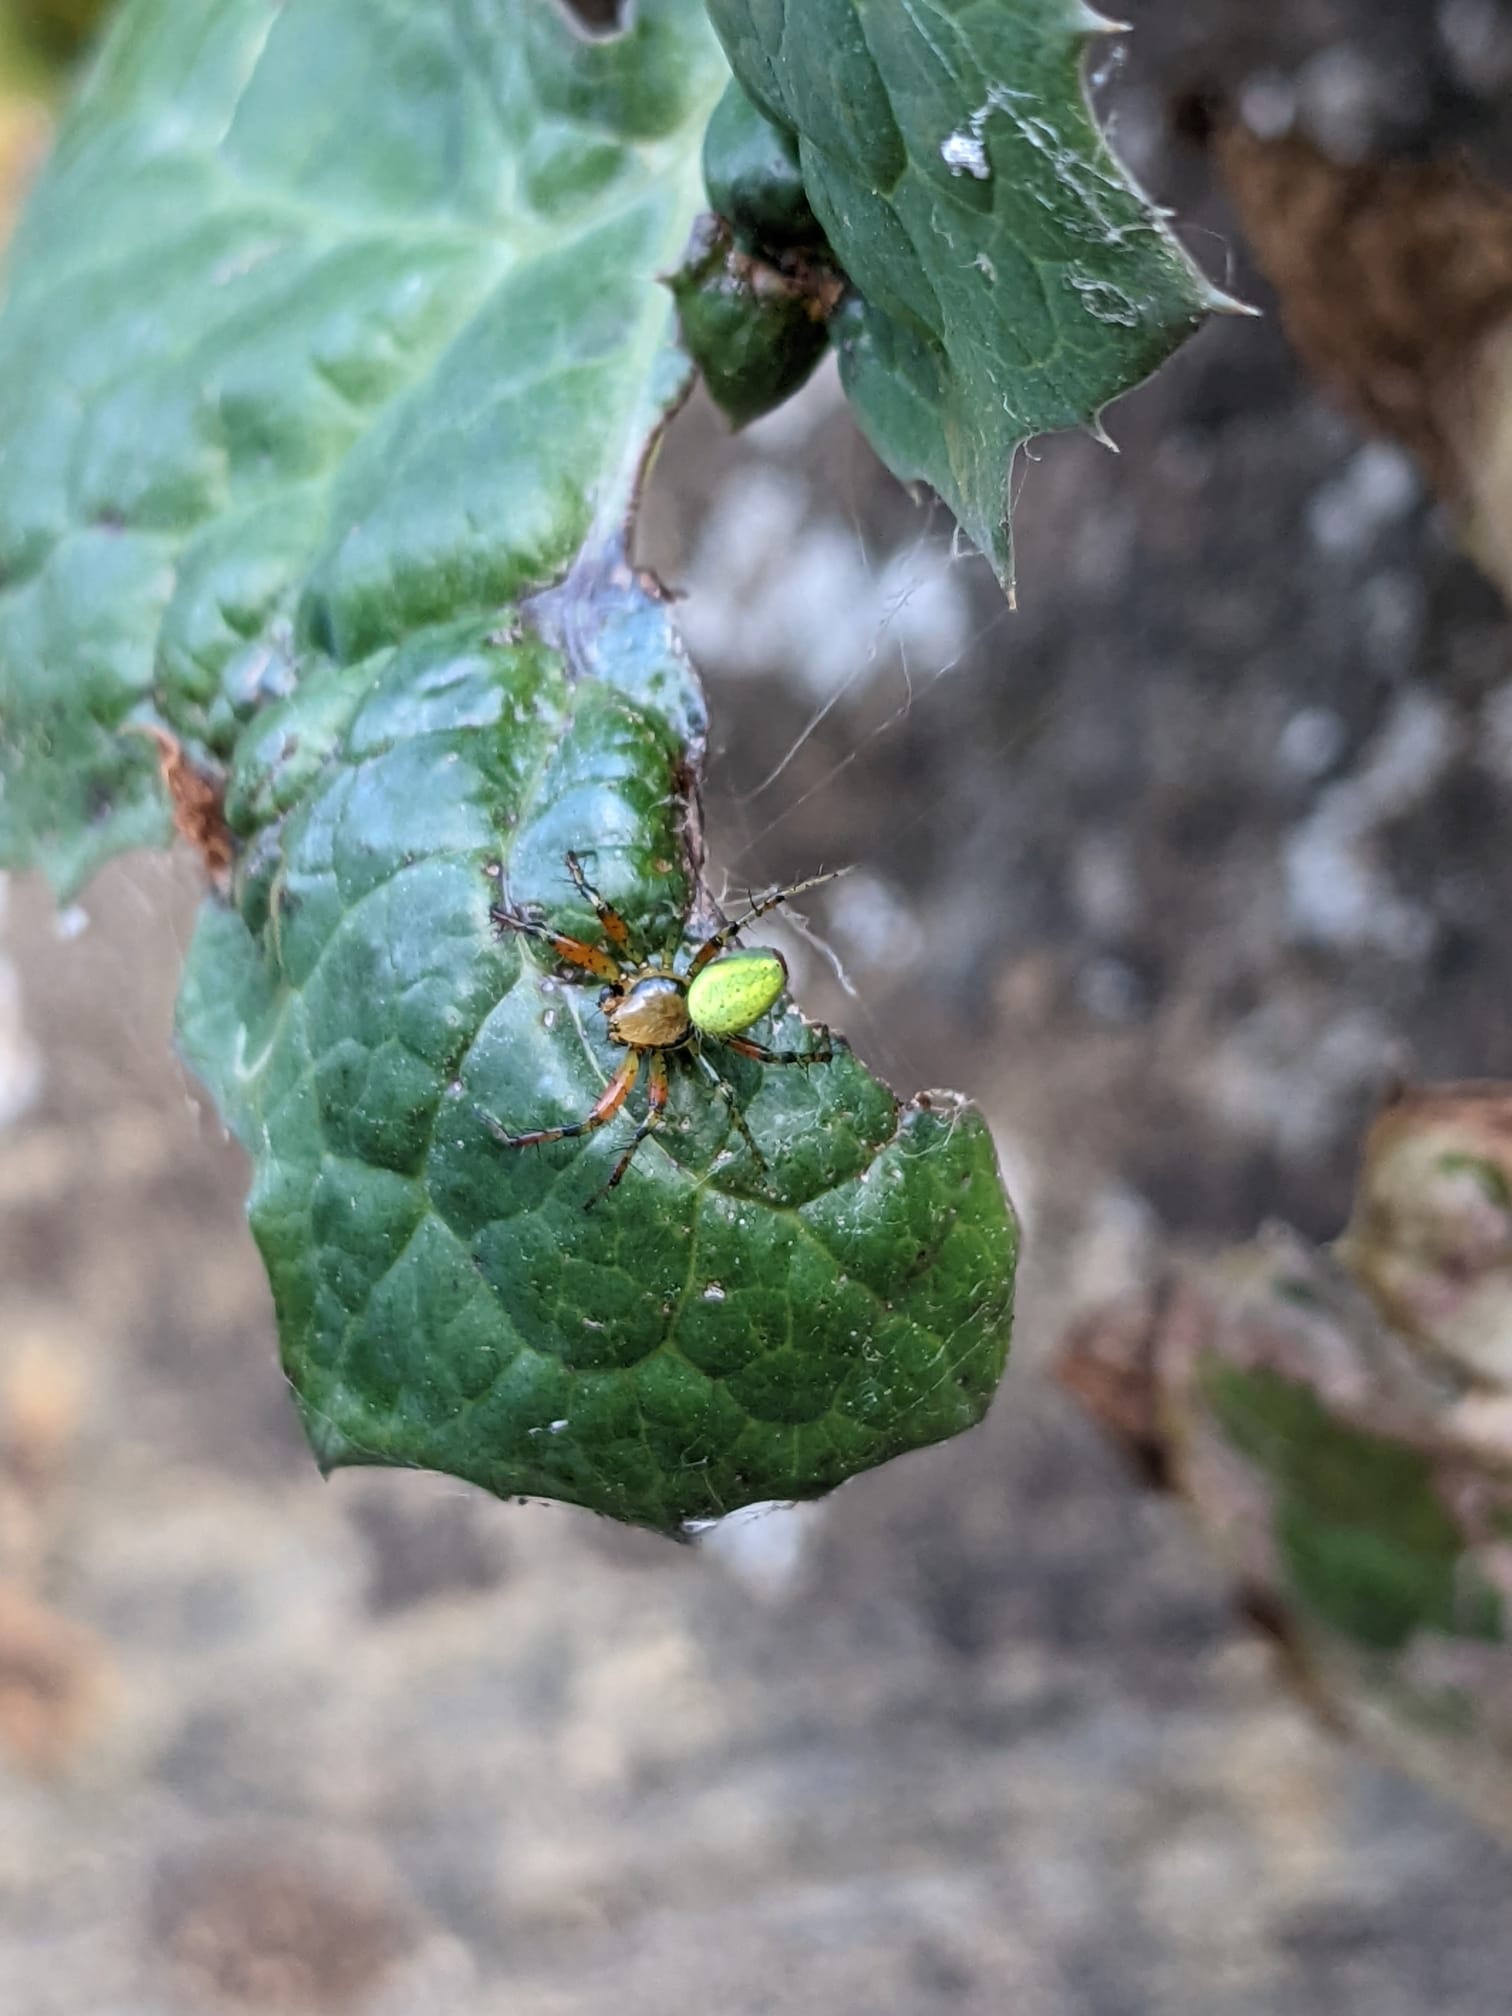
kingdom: Animalia
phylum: Arthropoda
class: Arachnida
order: Araneae
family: Araneidae
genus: Araniella
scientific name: Araniella
